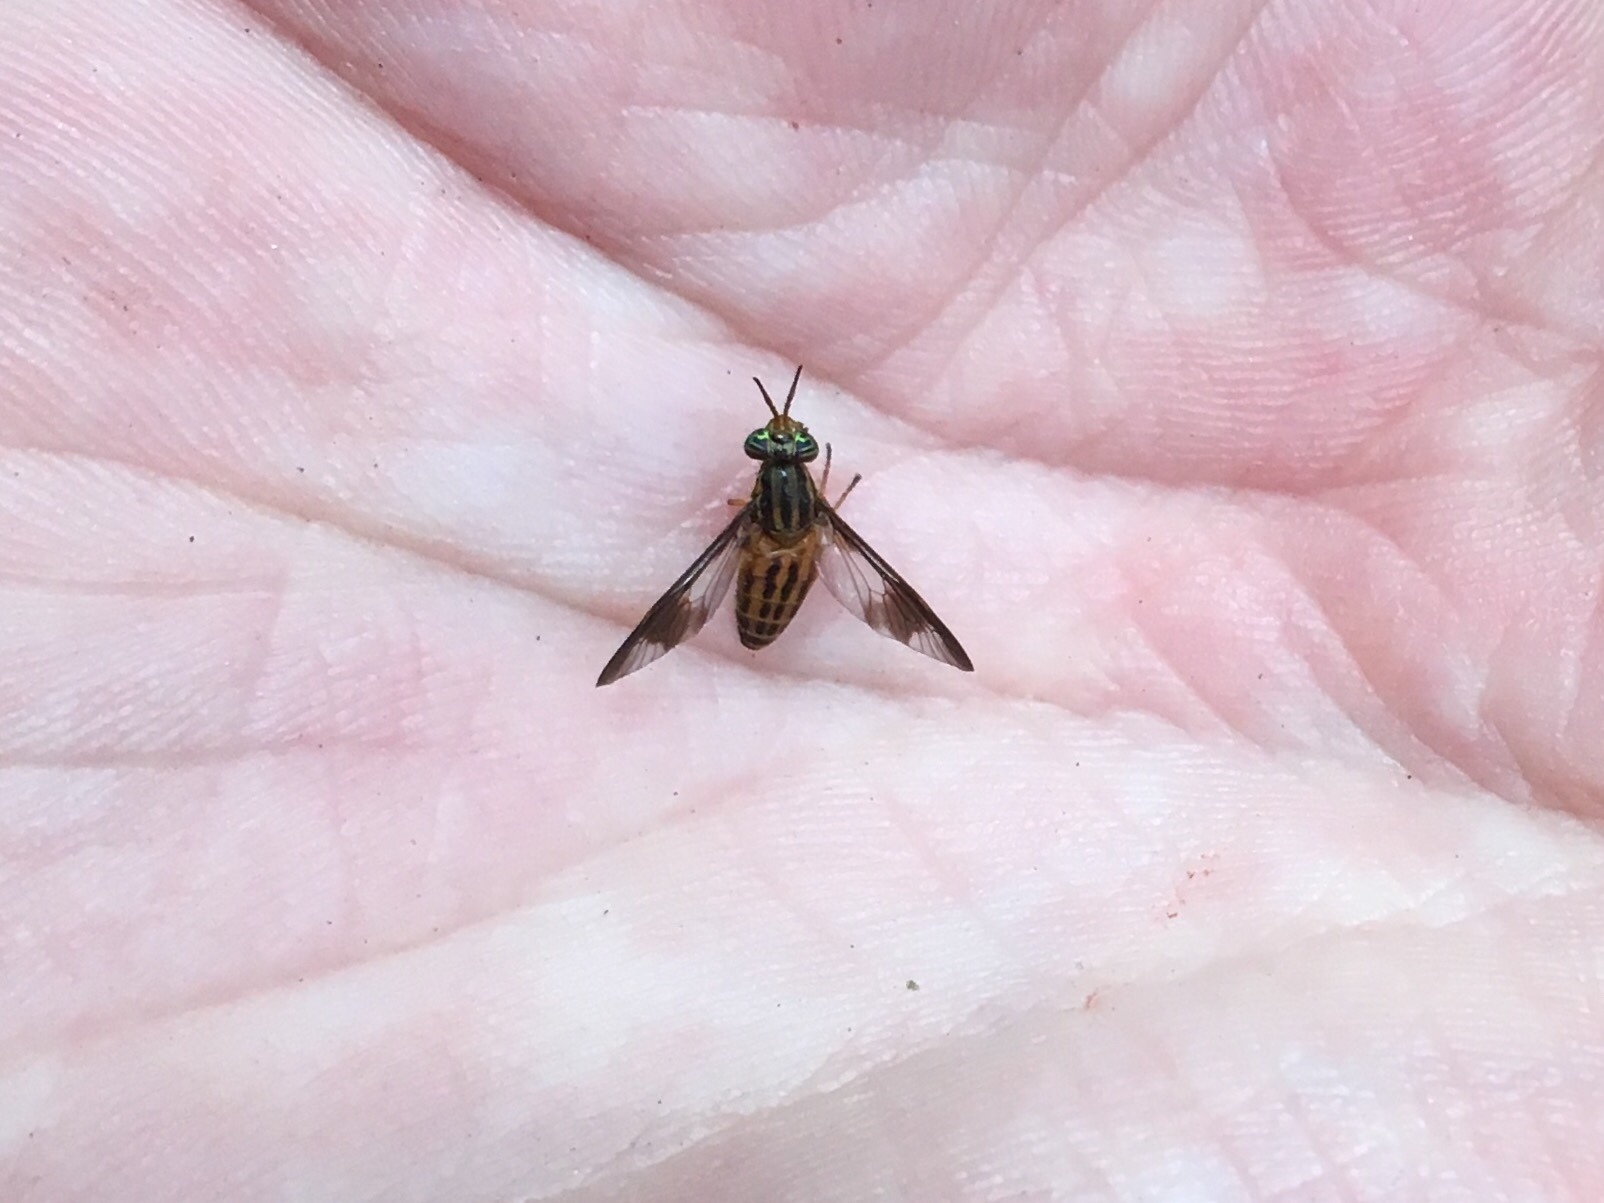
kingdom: Animalia
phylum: Arthropoda
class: Insecta
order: Diptera
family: Tabanidae
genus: Chrysops
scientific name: Chrysops vittatus
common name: Striped deer fly
